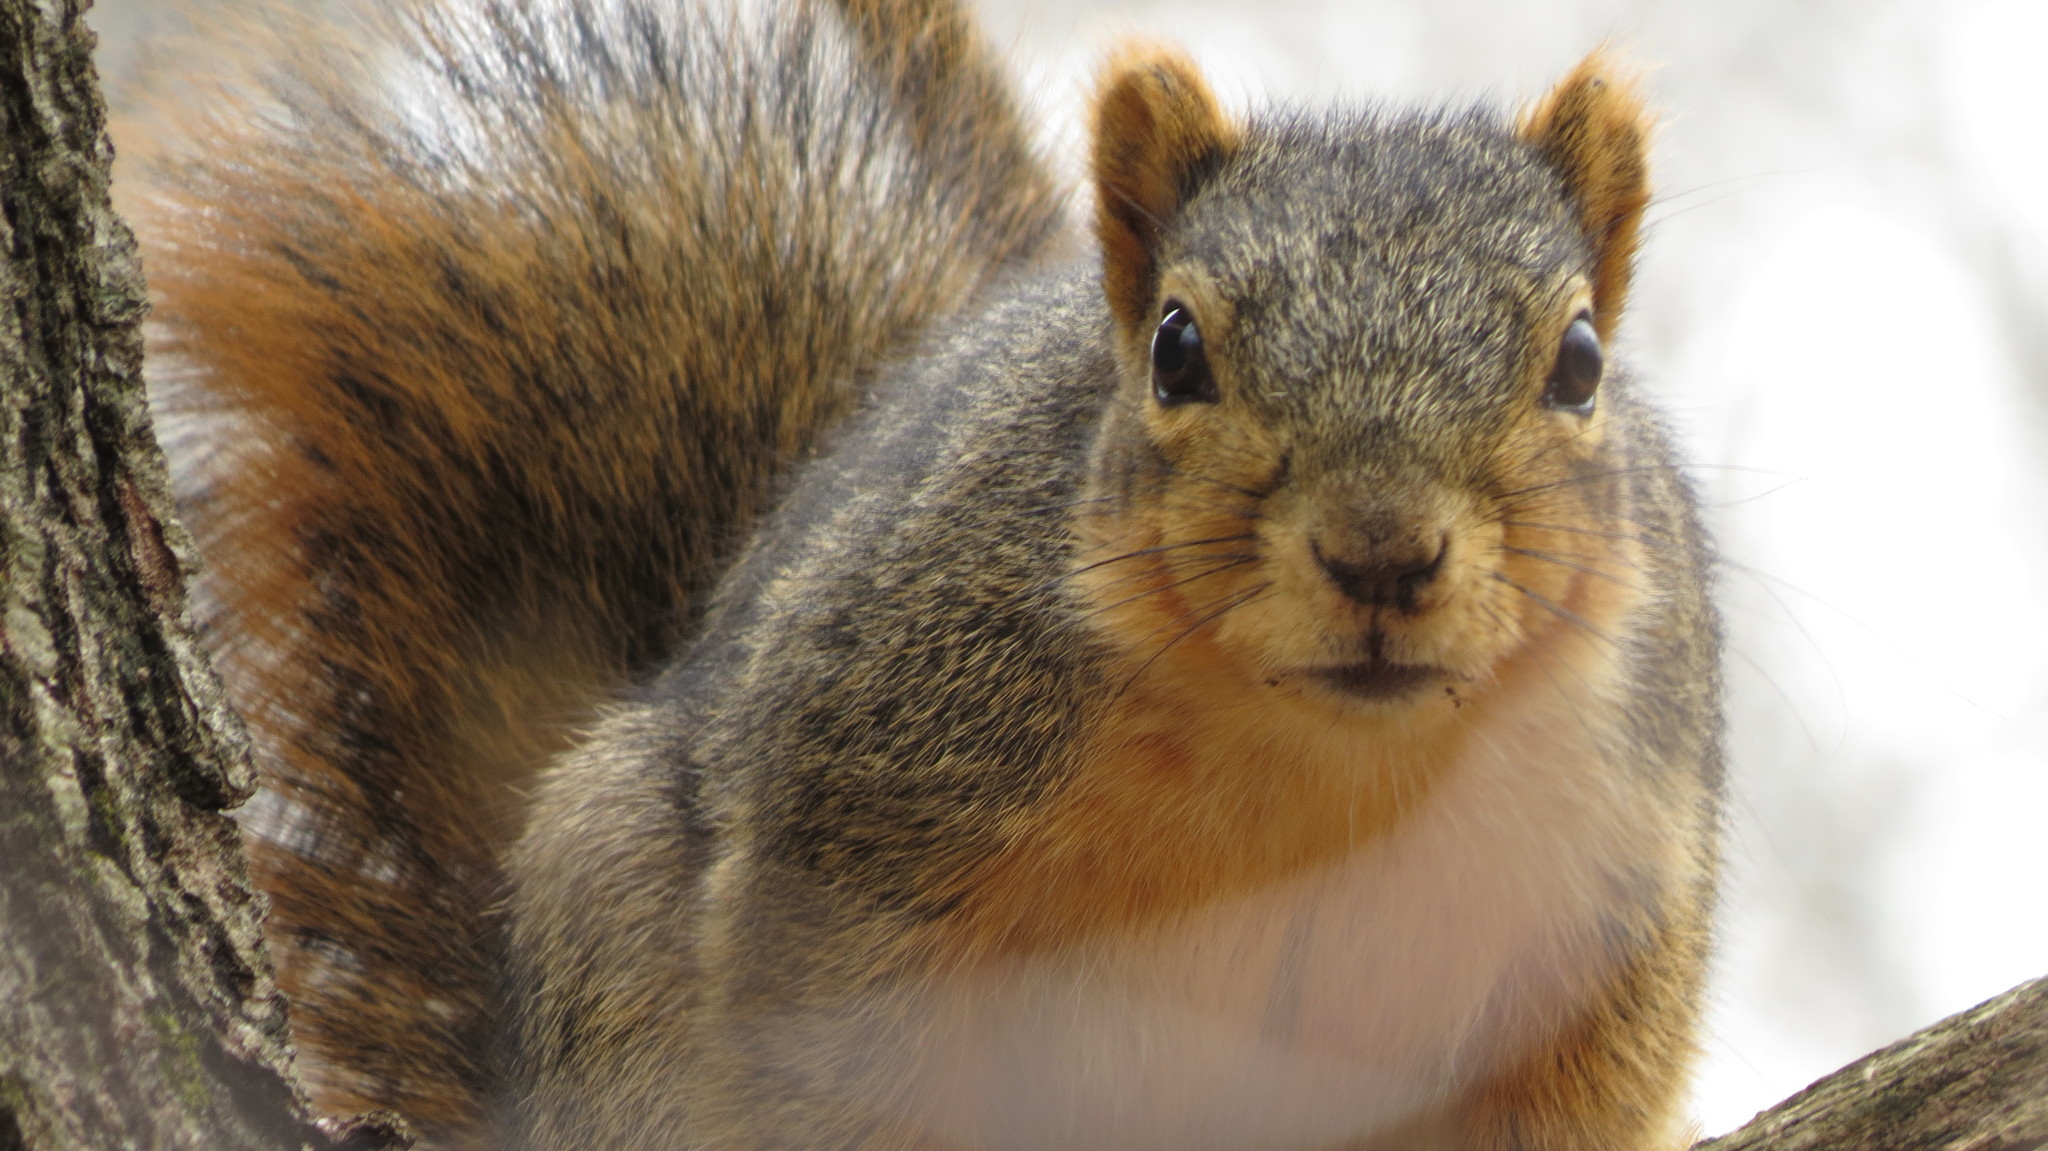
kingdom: Animalia
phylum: Chordata
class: Mammalia
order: Rodentia
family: Sciuridae
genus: Sciurus
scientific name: Sciurus niger
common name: Fox squirrel
